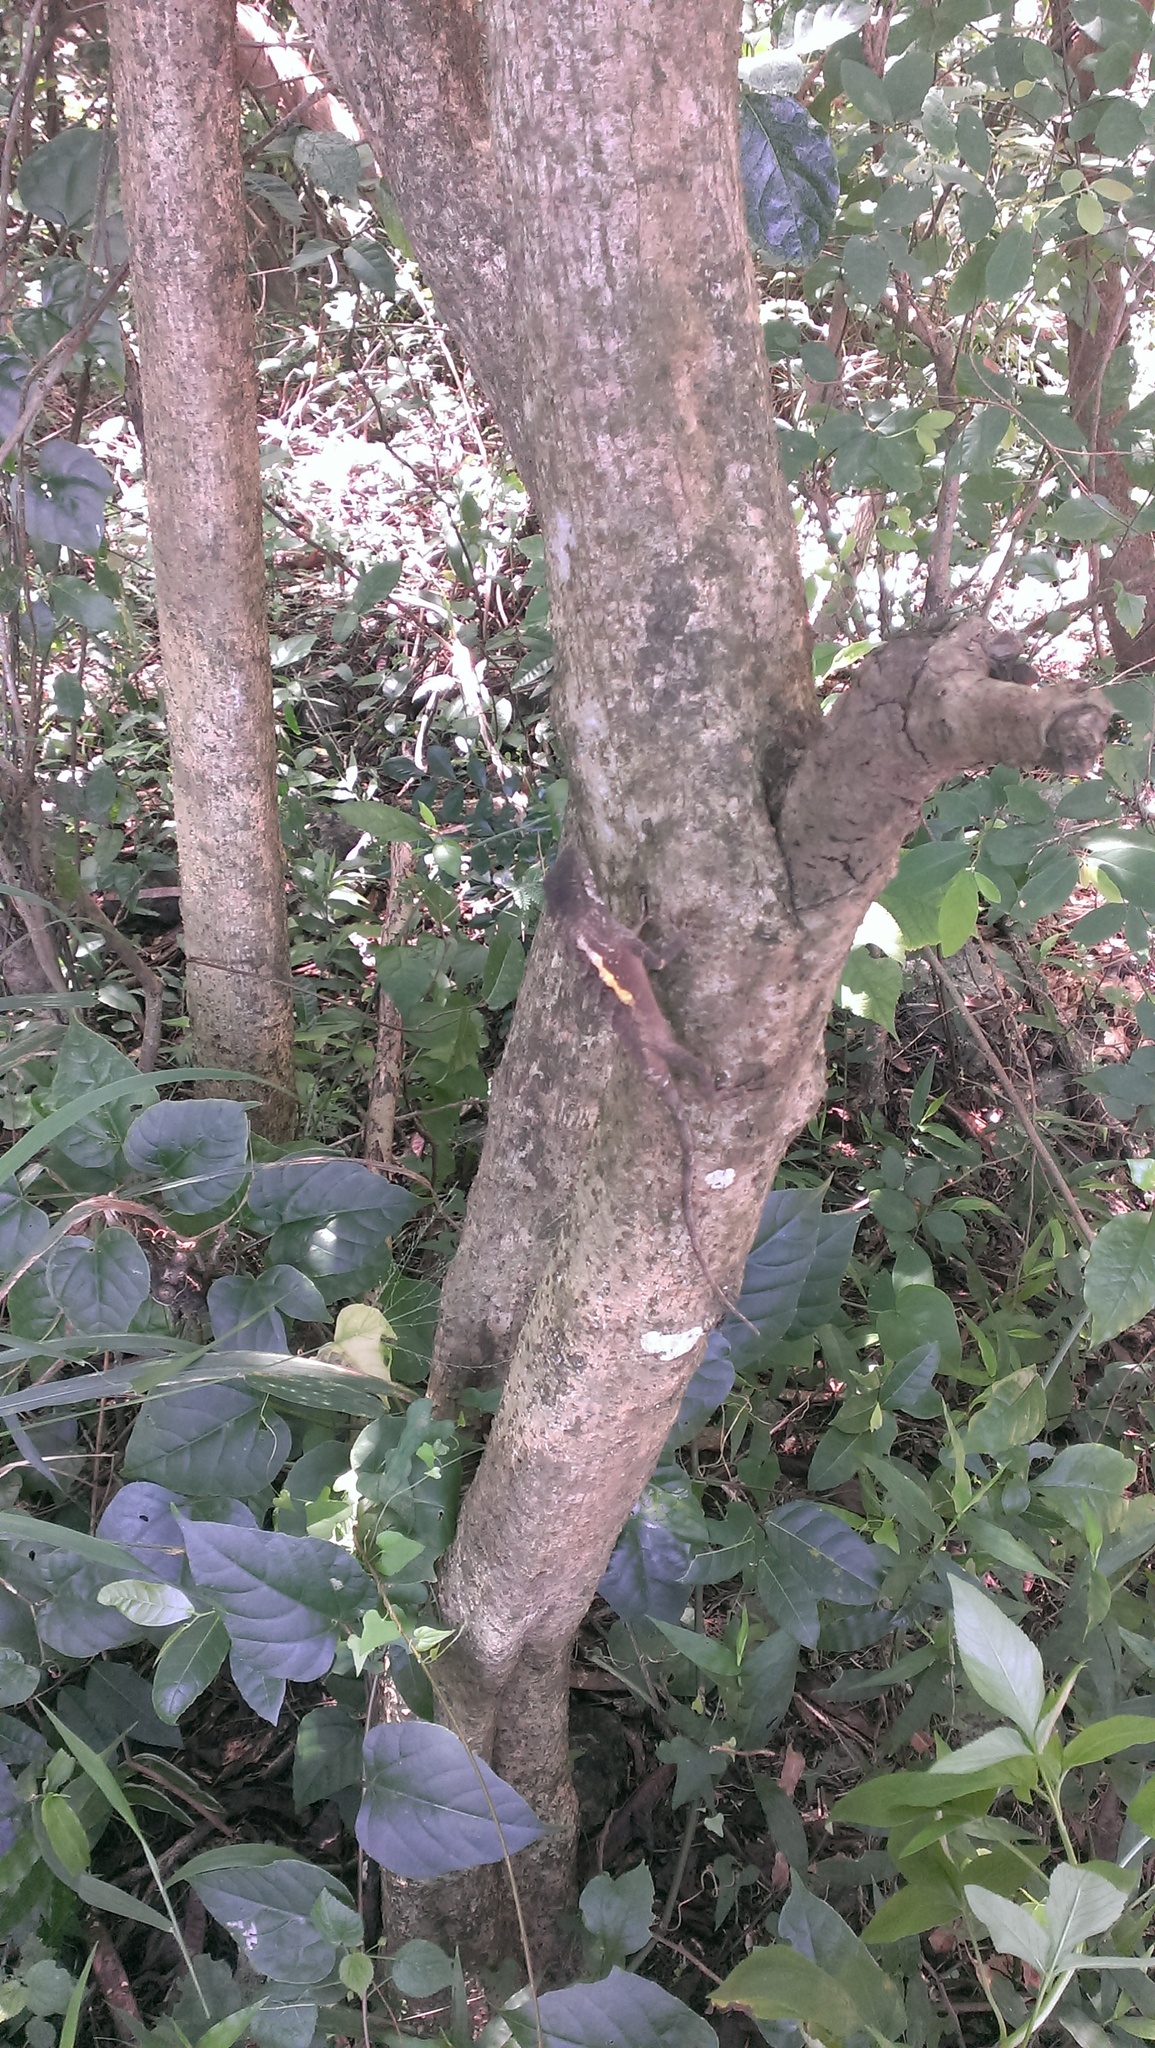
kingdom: Animalia
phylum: Chordata
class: Squamata
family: Agamidae
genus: Diploderma
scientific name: Diploderma swinhonis
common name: Taiwan japalure
